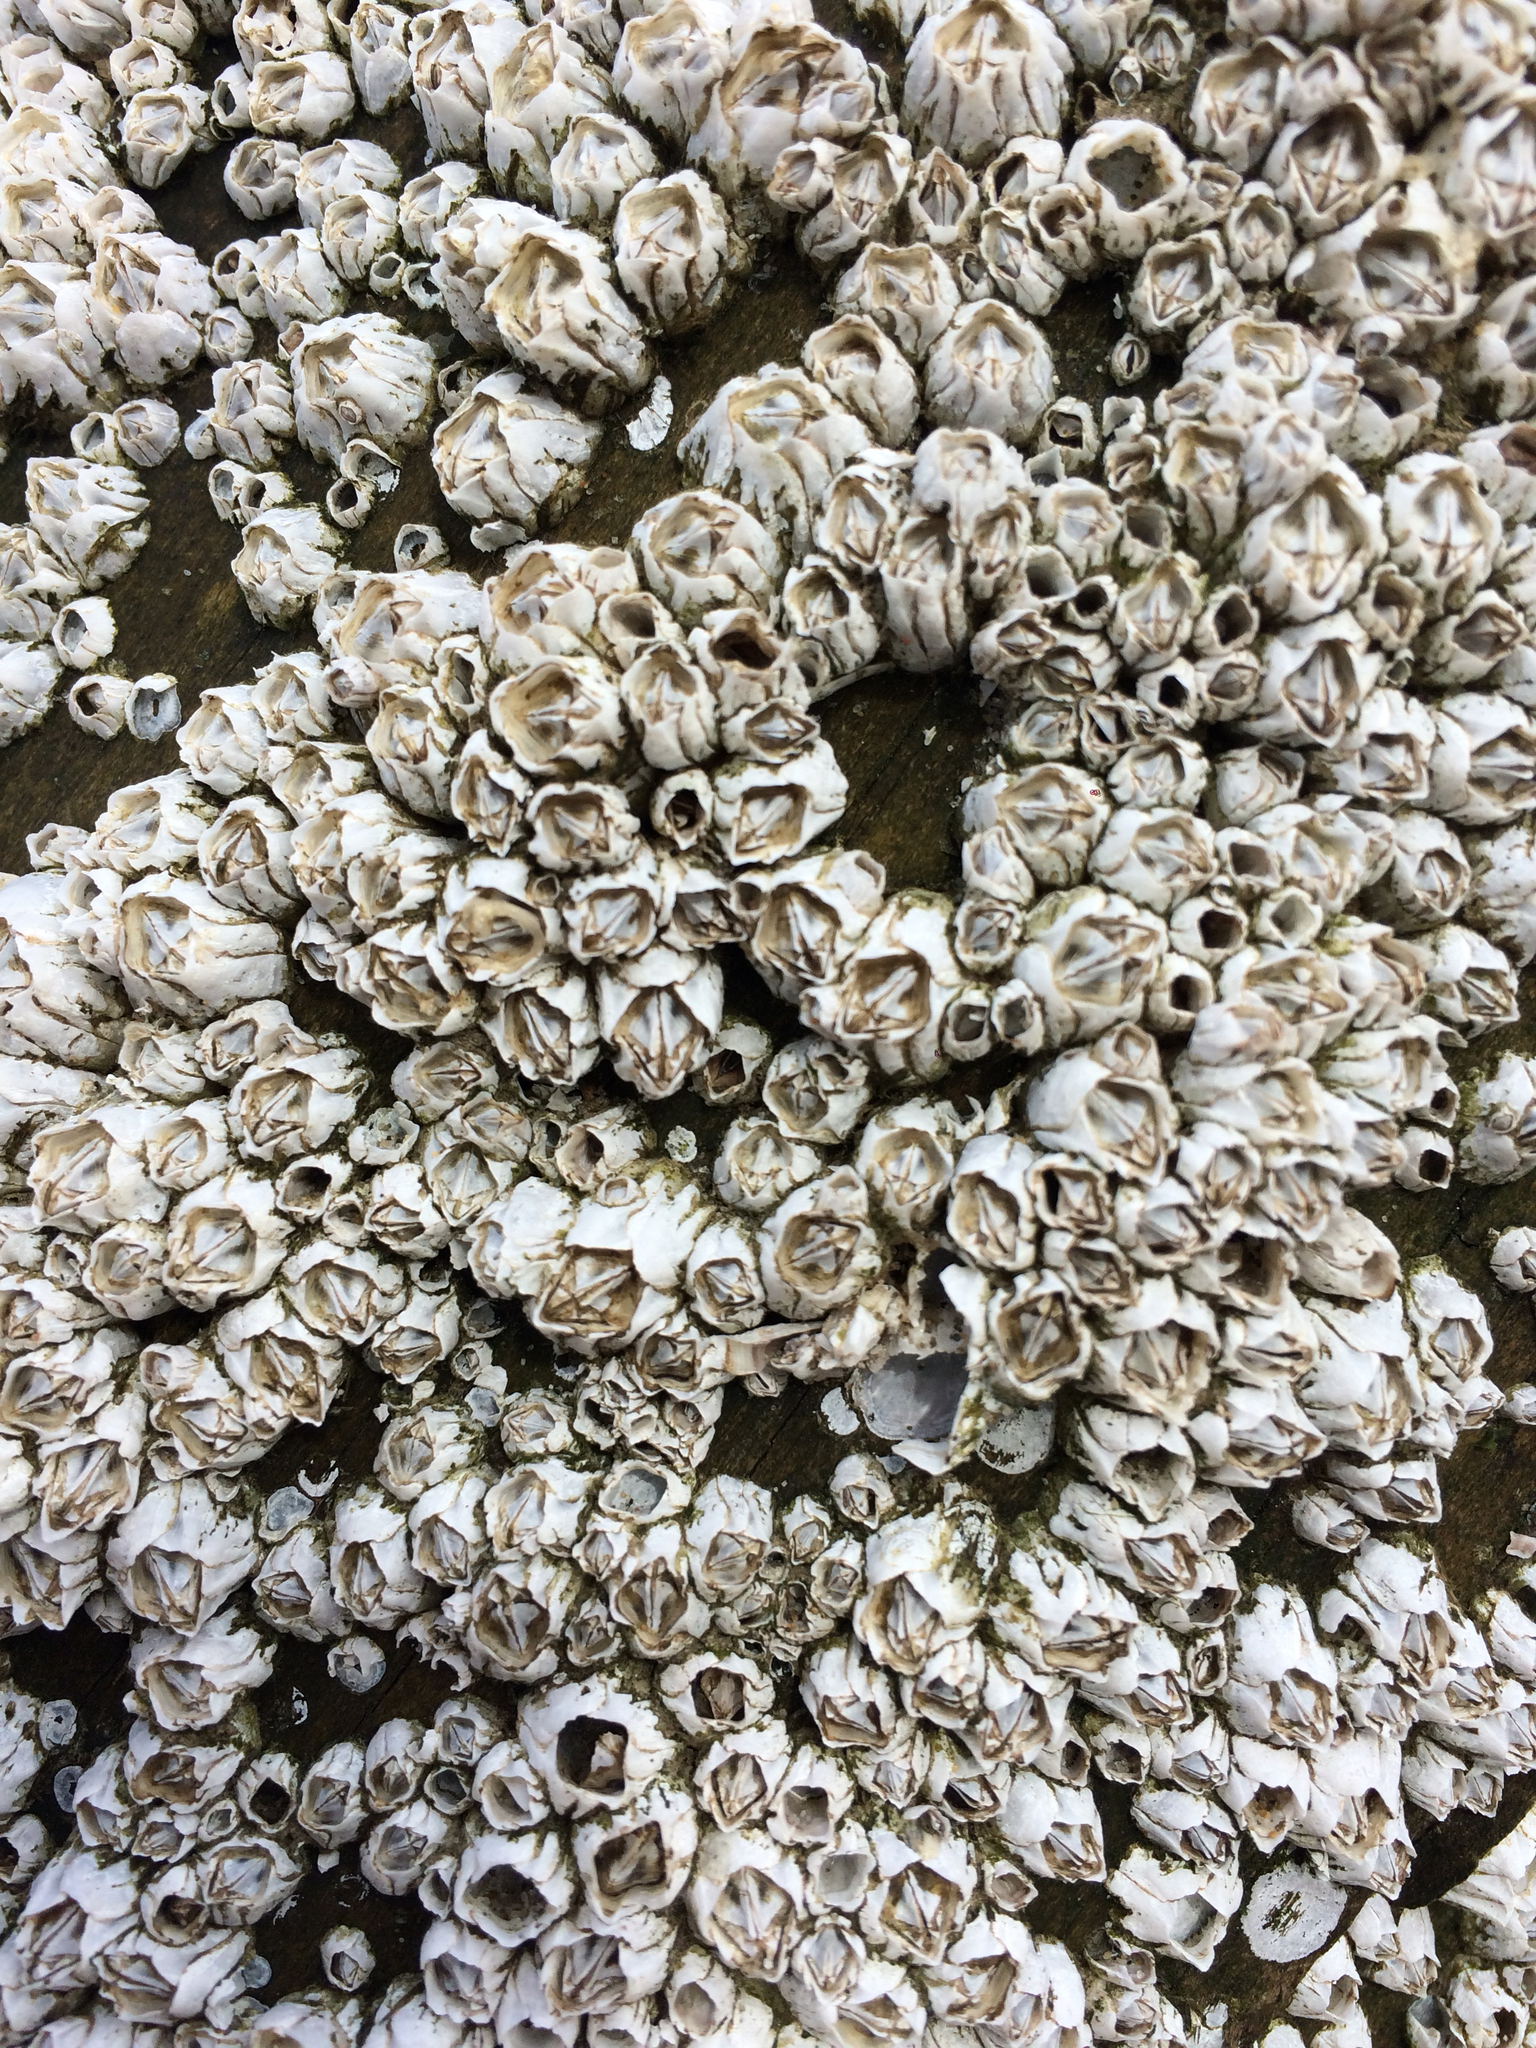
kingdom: Animalia
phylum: Arthropoda
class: Maxillopoda
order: Sessilia
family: Balanidae
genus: Balanus
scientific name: Balanus glandula
